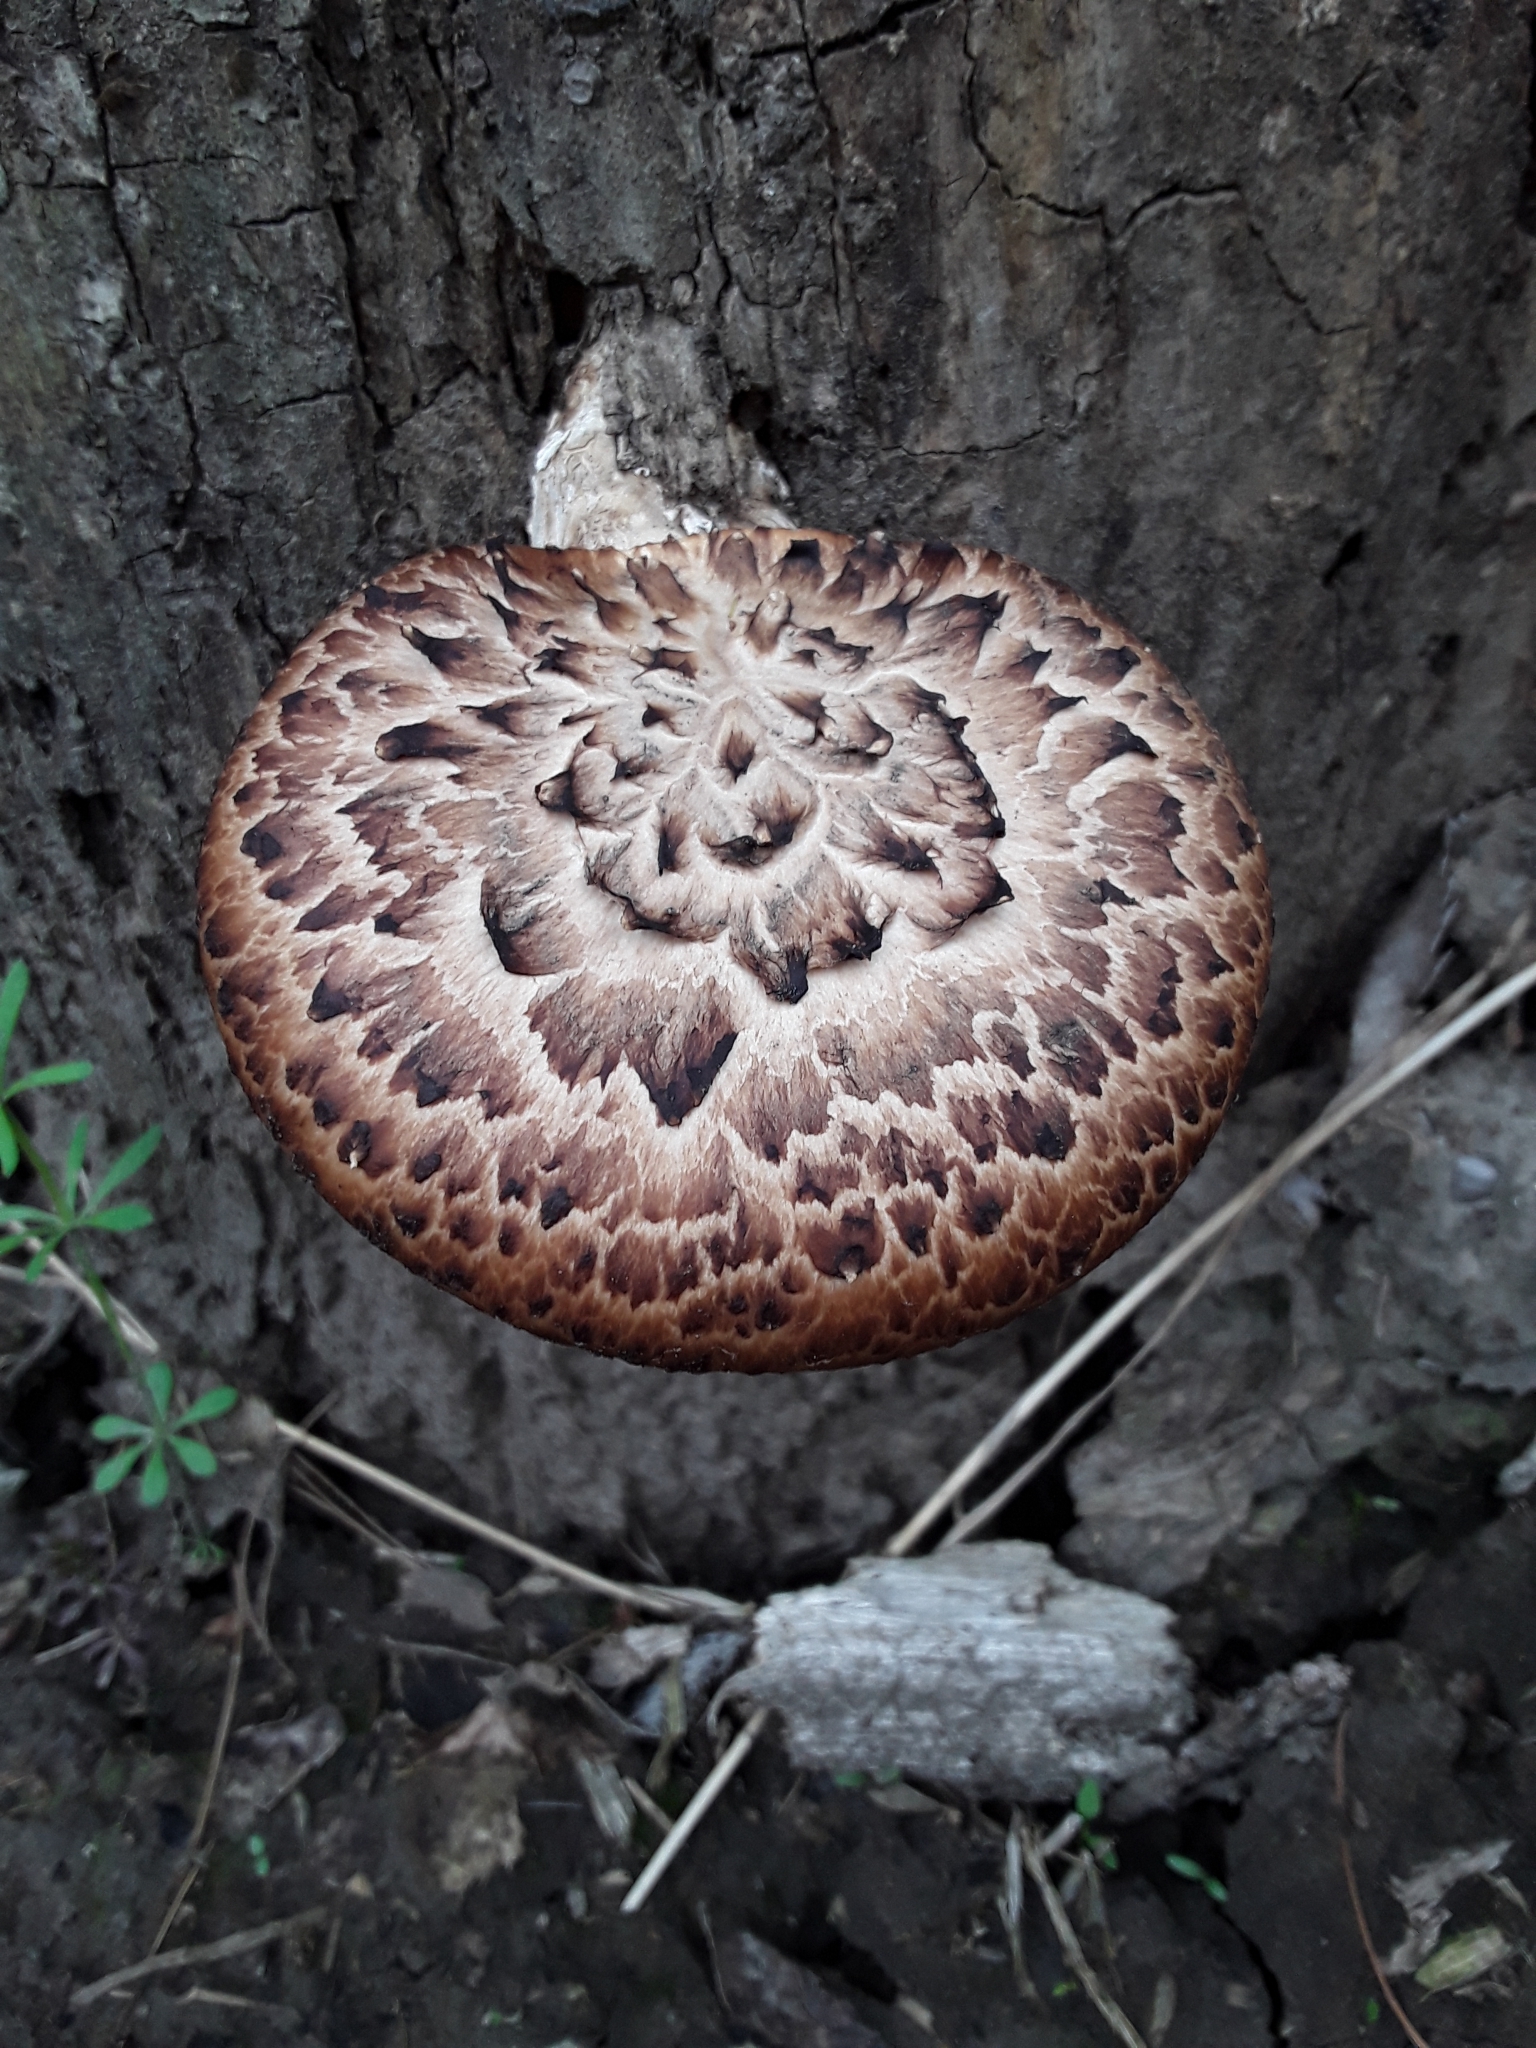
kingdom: Fungi
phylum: Basidiomycota
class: Agaricomycetes
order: Polyporales
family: Polyporaceae
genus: Cerioporus
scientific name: Cerioporus squamosus
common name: Dryad's saddle
